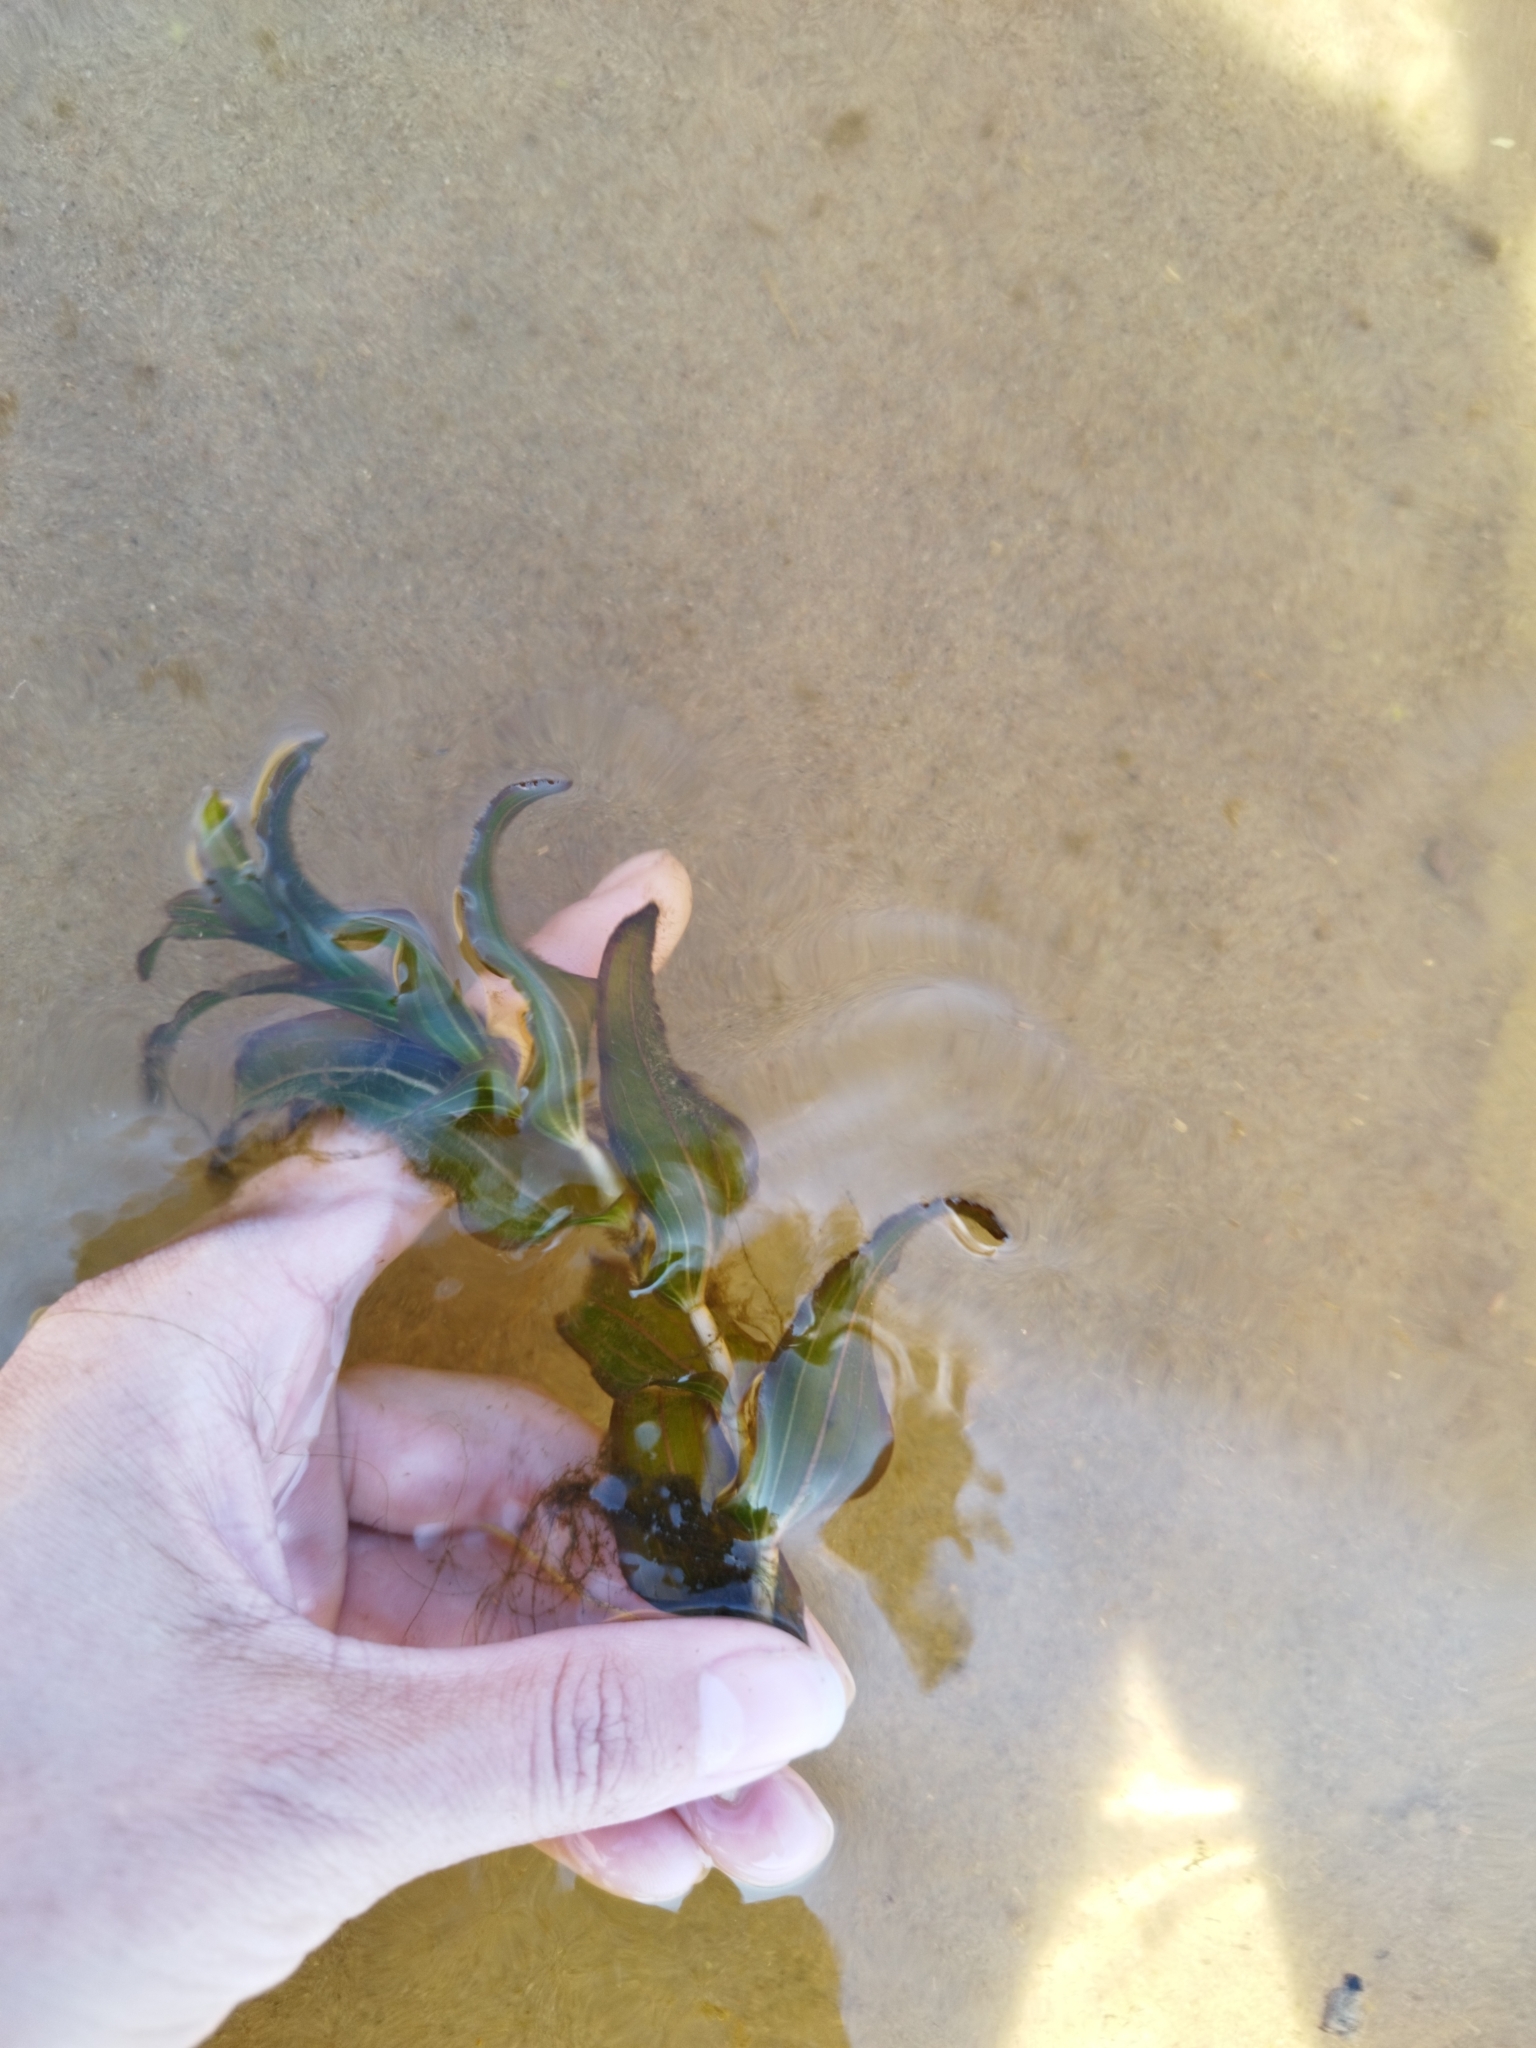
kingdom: Plantae
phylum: Tracheophyta
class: Liliopsida
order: Alismatales
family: Potamogetonaceae
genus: Potamogeton
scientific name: Potamogeton perfoliatus
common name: Perfoliate pondweed
